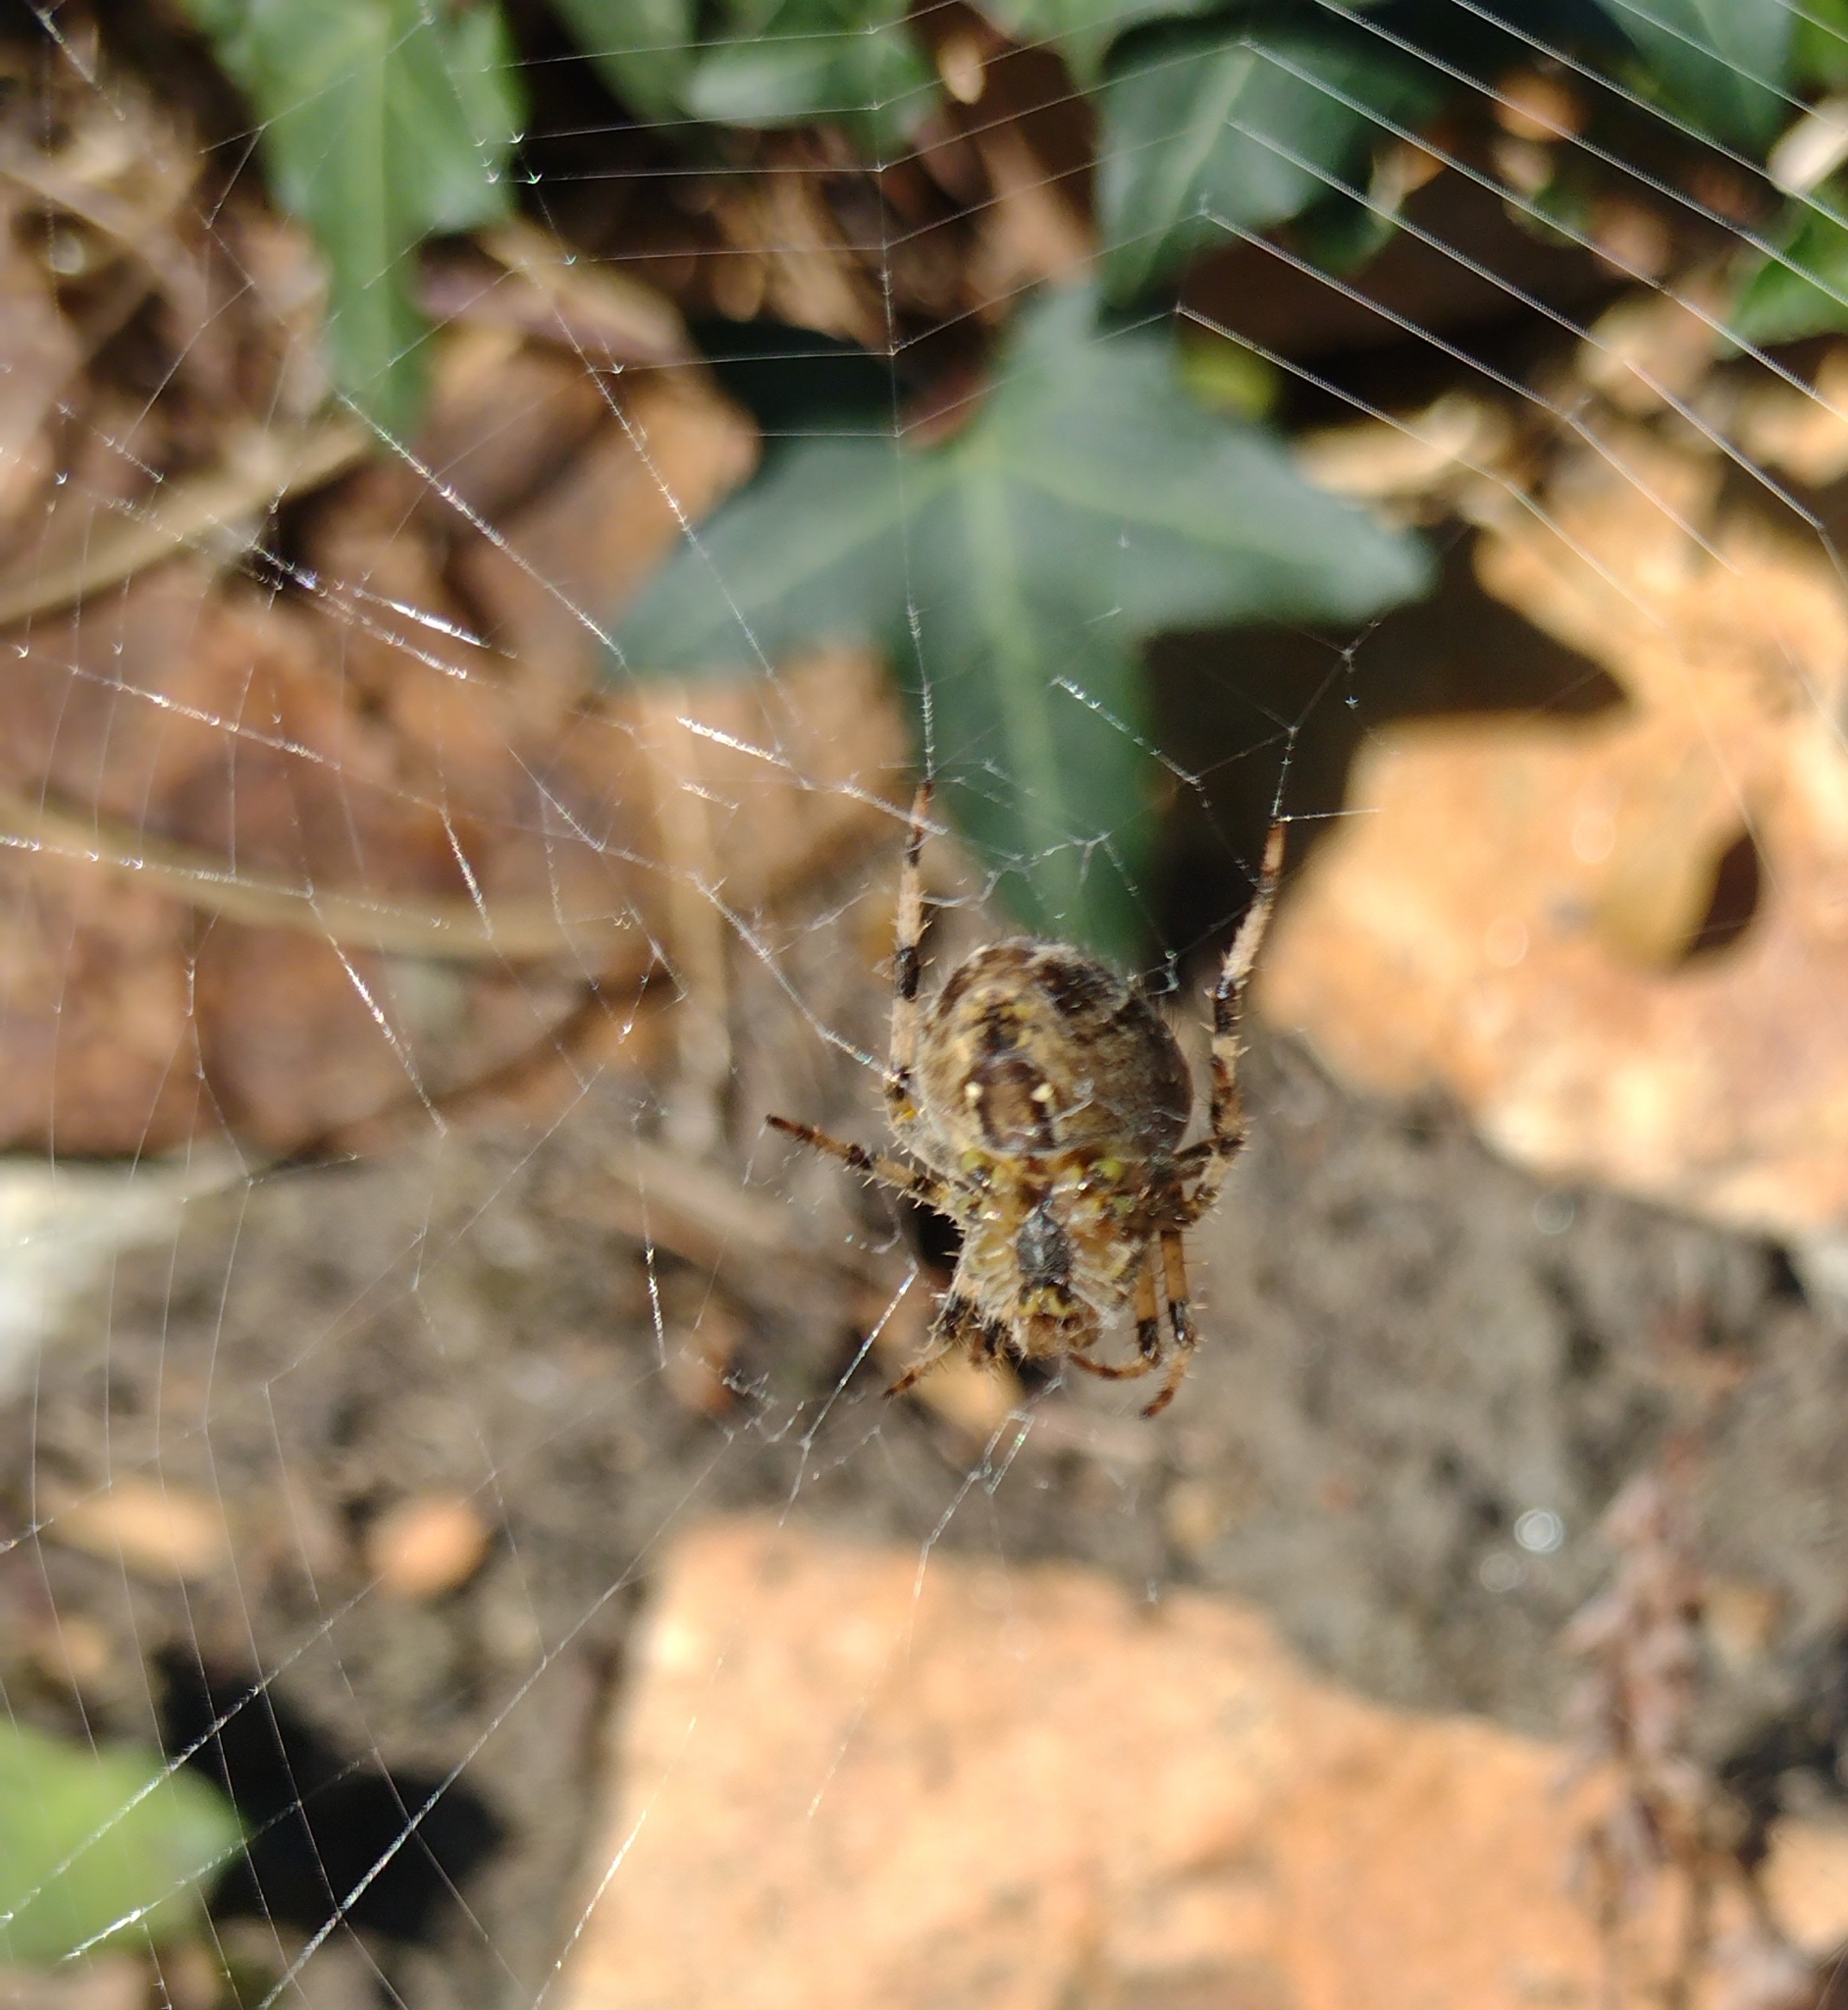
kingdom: Animalia
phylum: Arthropoda
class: Arachnida
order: Araneae
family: Araneidae
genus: Araneus
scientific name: Araneus diadematus
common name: Cross orbweaver
